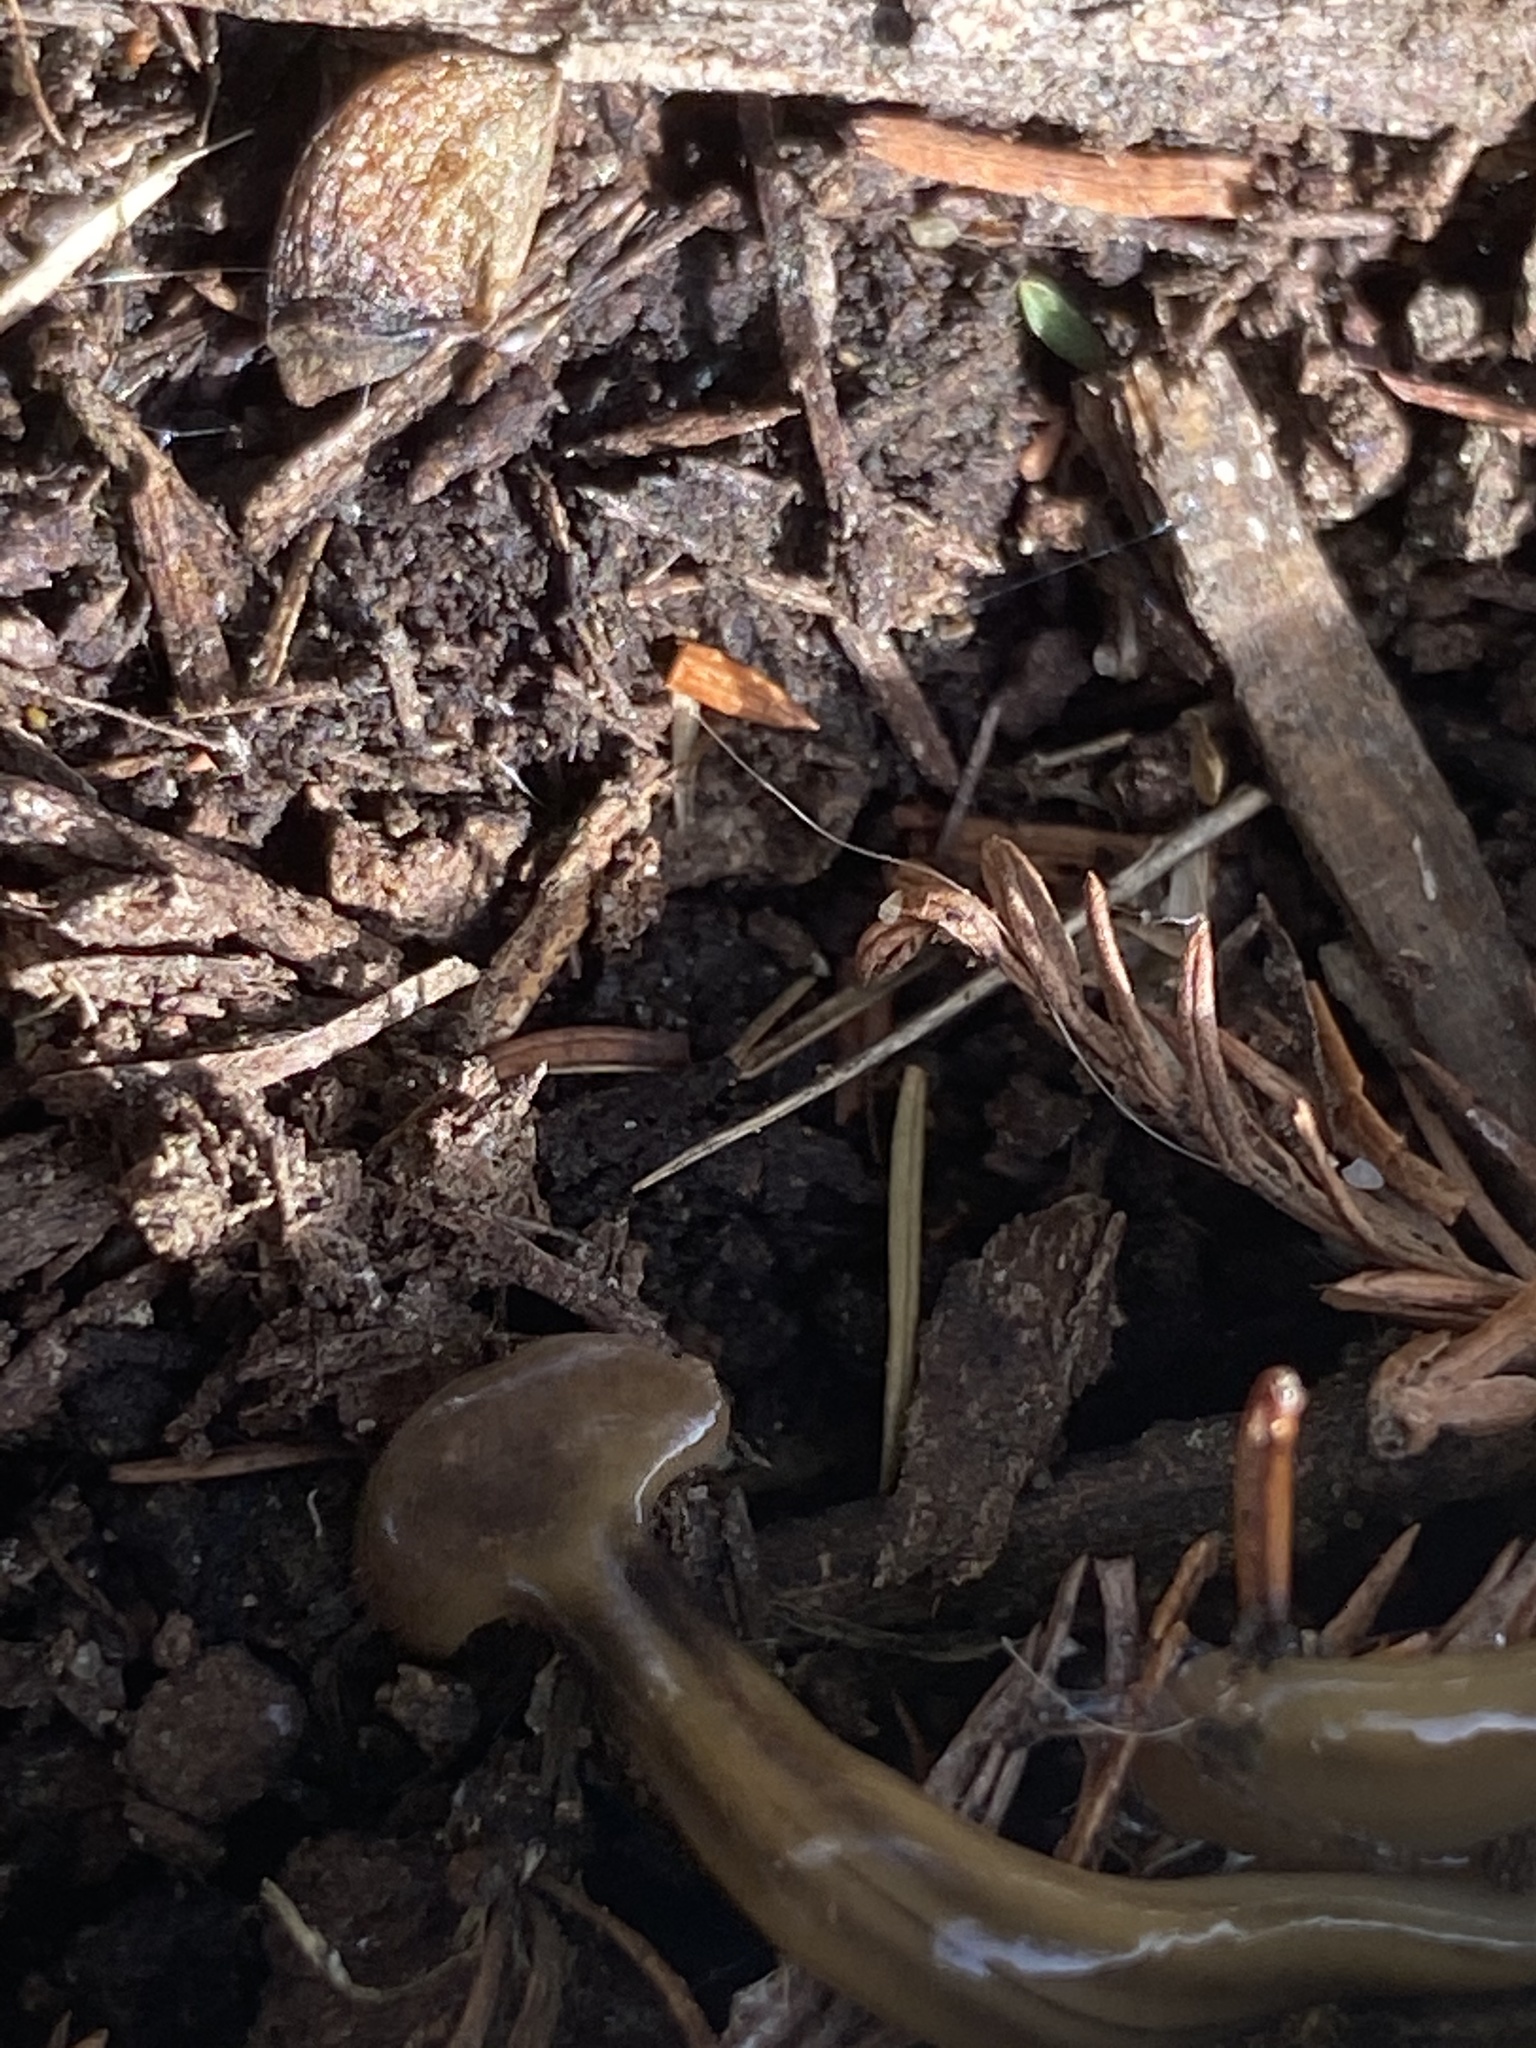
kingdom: Animalia
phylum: Platyhelminthes
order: Tricladida
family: Geoplanidae
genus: Bipalium
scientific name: Bipalium kewense
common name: Hammerhead flatworm
